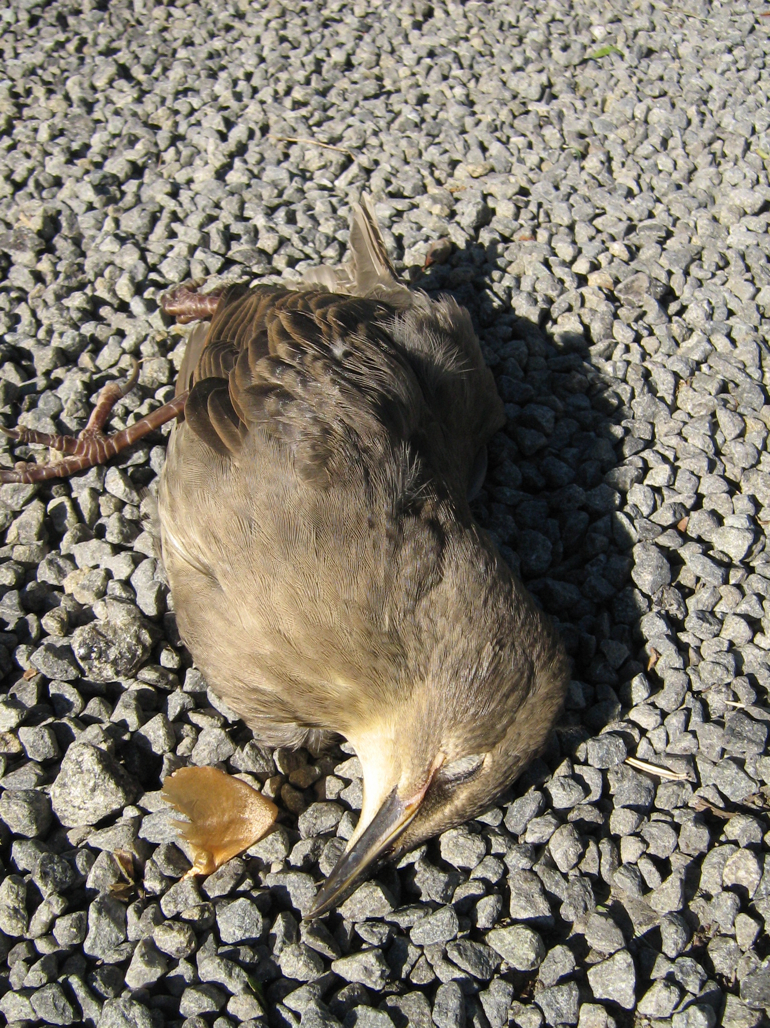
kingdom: Animalia
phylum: Chordata
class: Aves
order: Passeriformes
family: Sturnidae
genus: Sturnus
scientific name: Sturnus vulgaris
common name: Common starling
